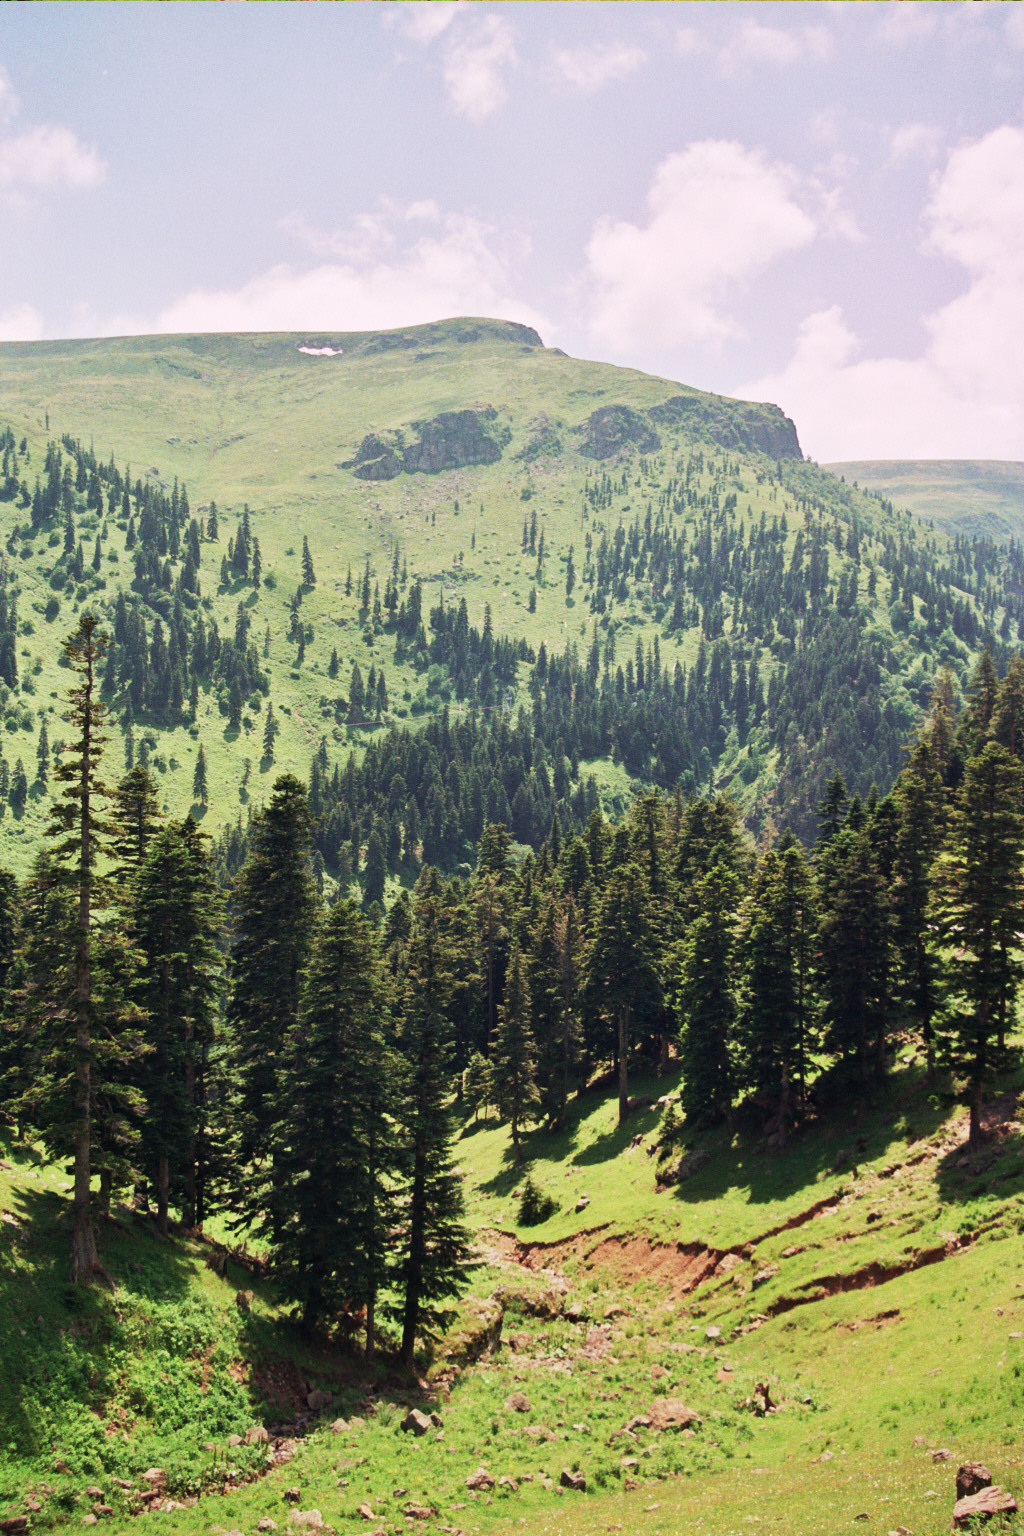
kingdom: Plantae
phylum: Tracheophyta
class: Pinopsida
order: Pinales
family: Pinaceae
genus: Abies
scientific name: Abies nordmanniana
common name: Caucasian fir
